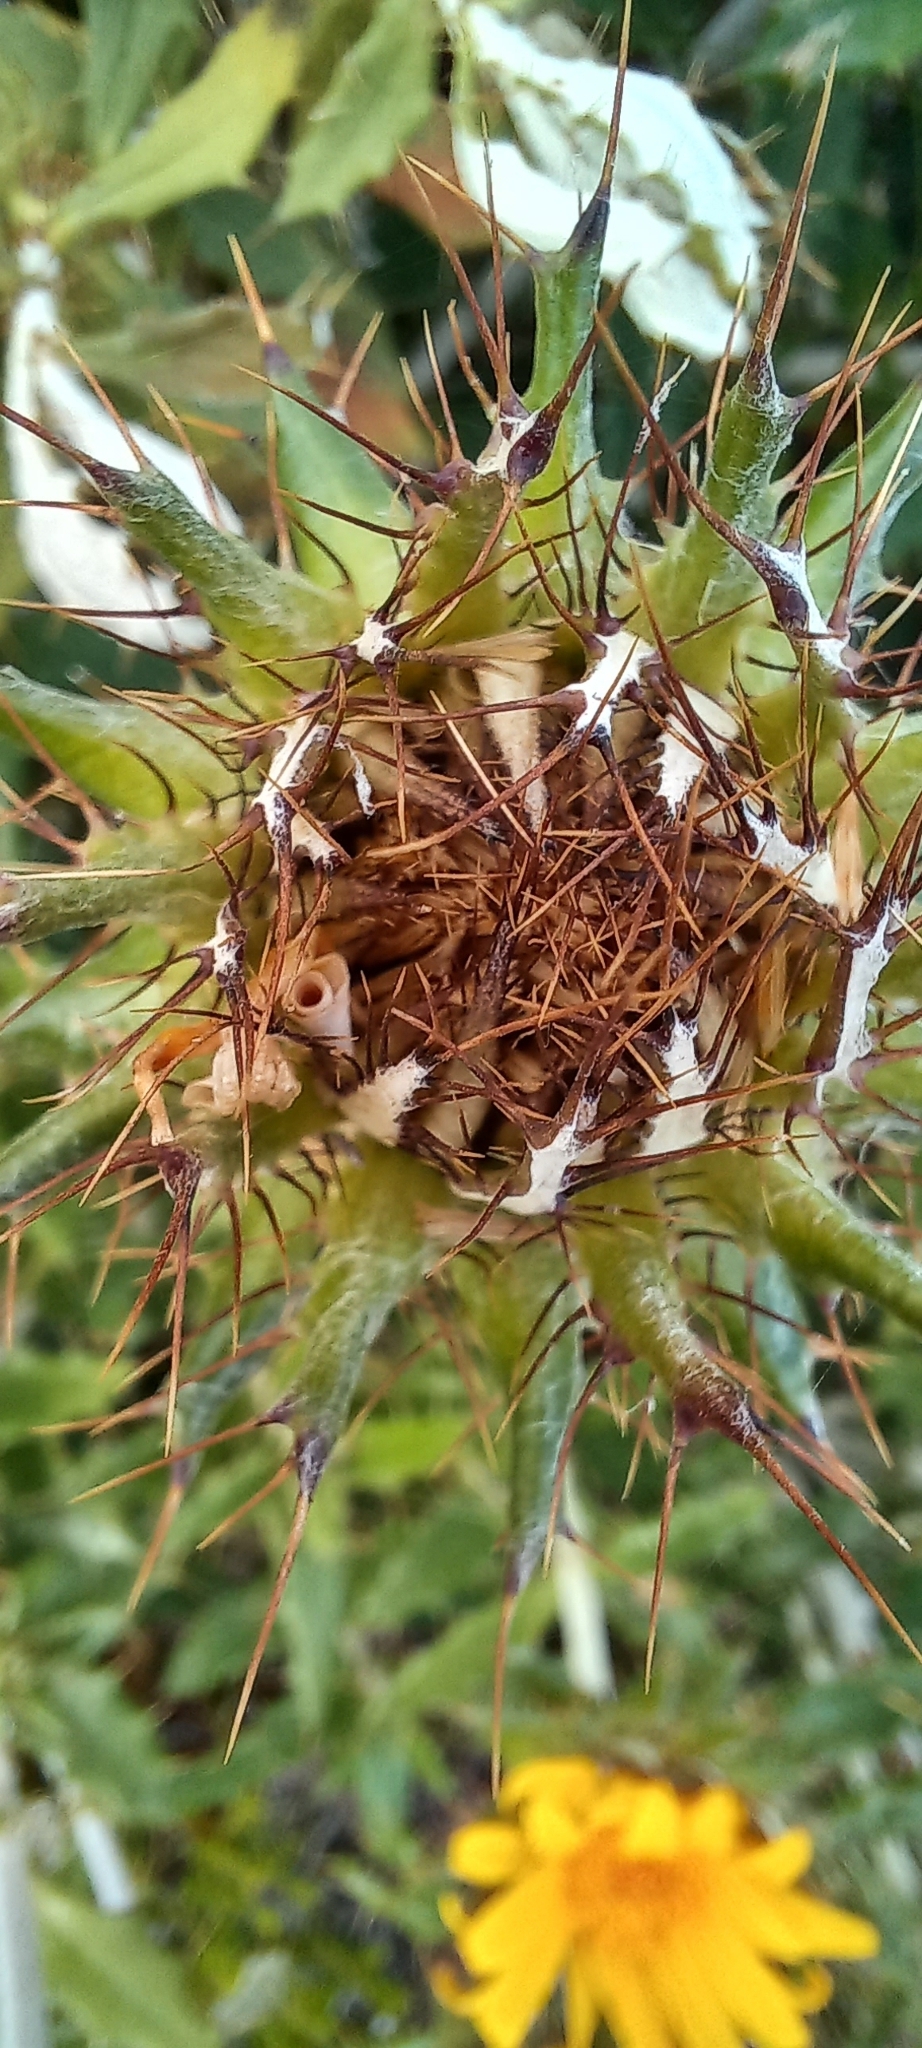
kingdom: Plantae
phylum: Tracheophyta
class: Magnoliopsida
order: Asterales
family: Asteraceae
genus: Berkheya
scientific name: Berkheya barbata
